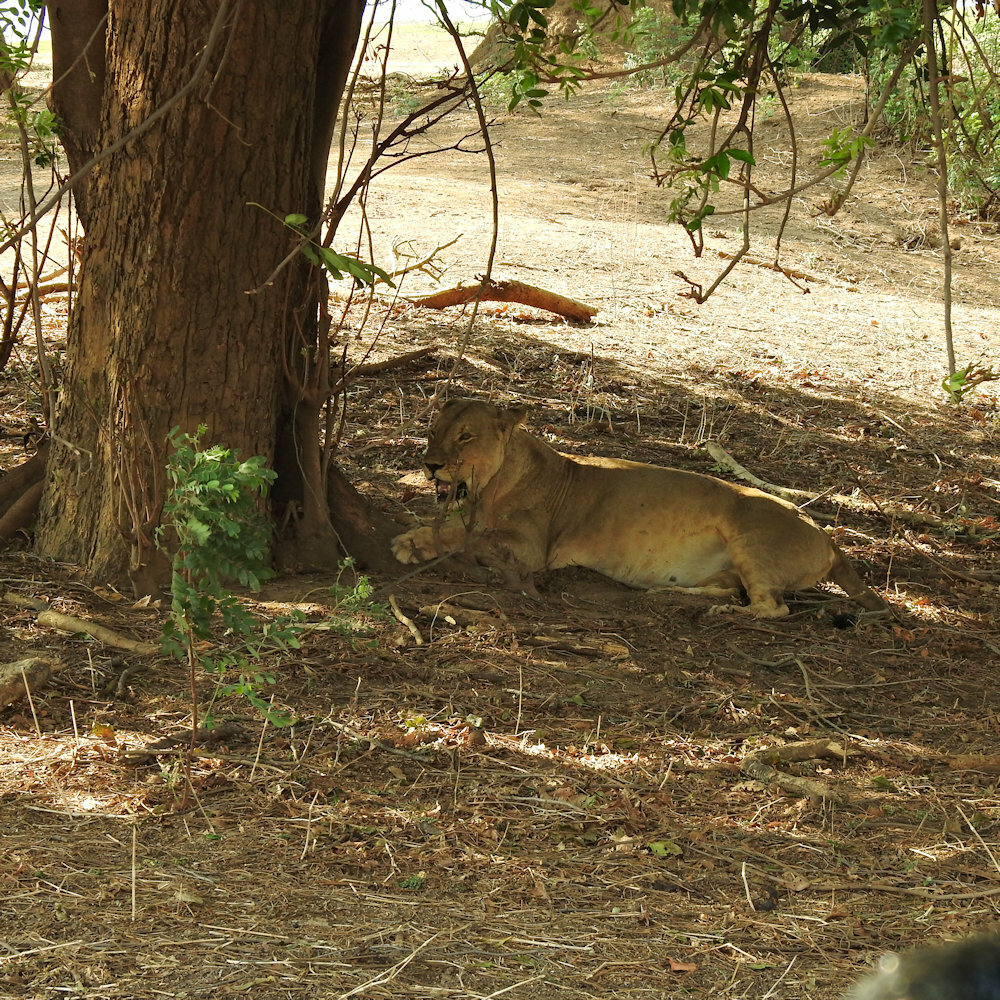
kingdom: Animalia
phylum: Chordata
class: Mammalia
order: Carnivora
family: Felidae
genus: Panthera
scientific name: Panthera leo
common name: Lion
